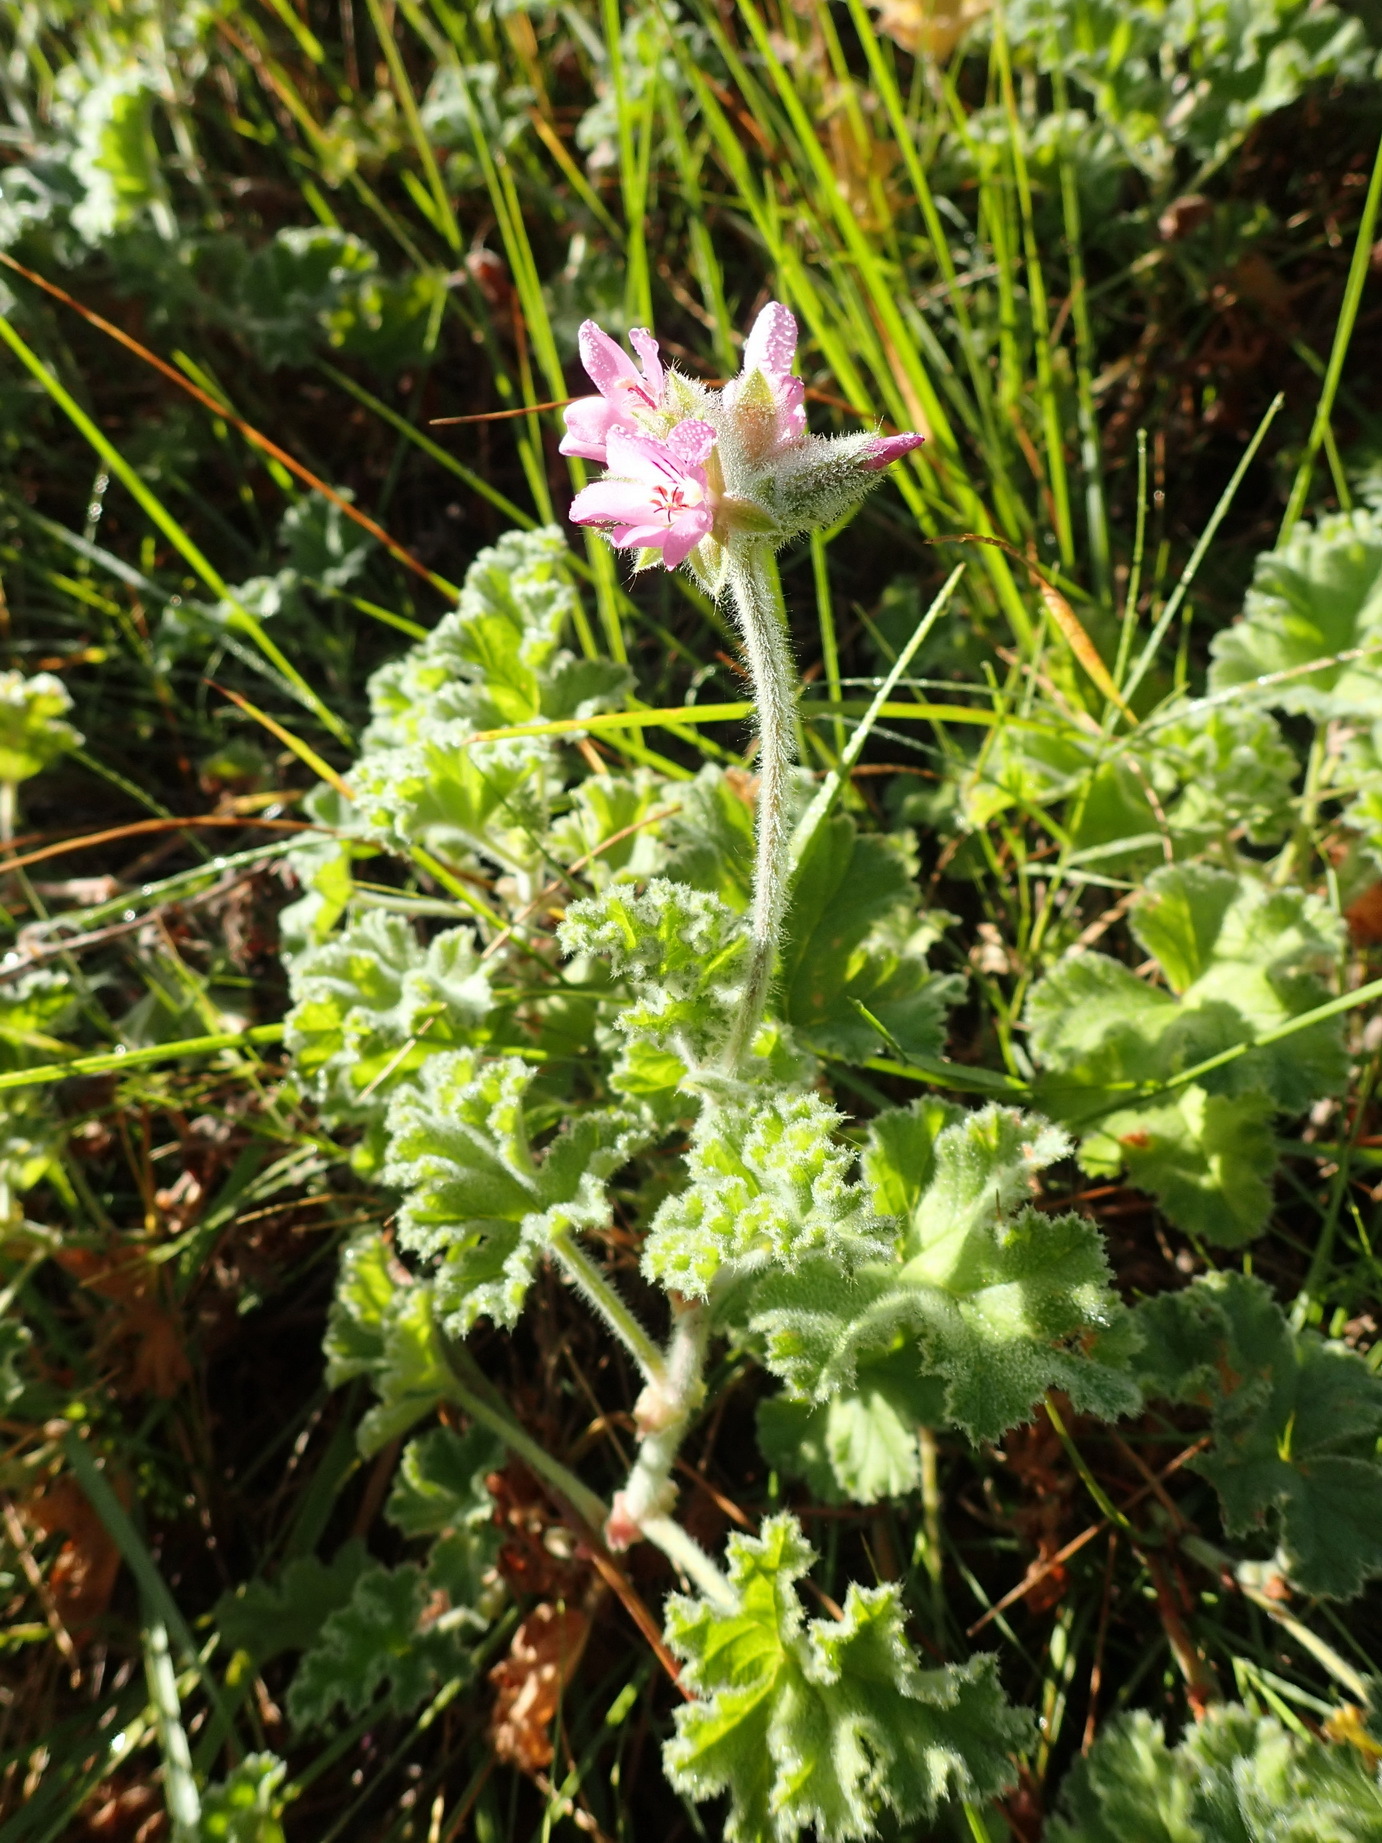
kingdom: Plantae
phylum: Tracheophyta
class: Magnoliopsida
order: Geraniales
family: Geraniaceae
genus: Pelargonium
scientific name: Pelargonium capitatum
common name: Rose scented geranium
